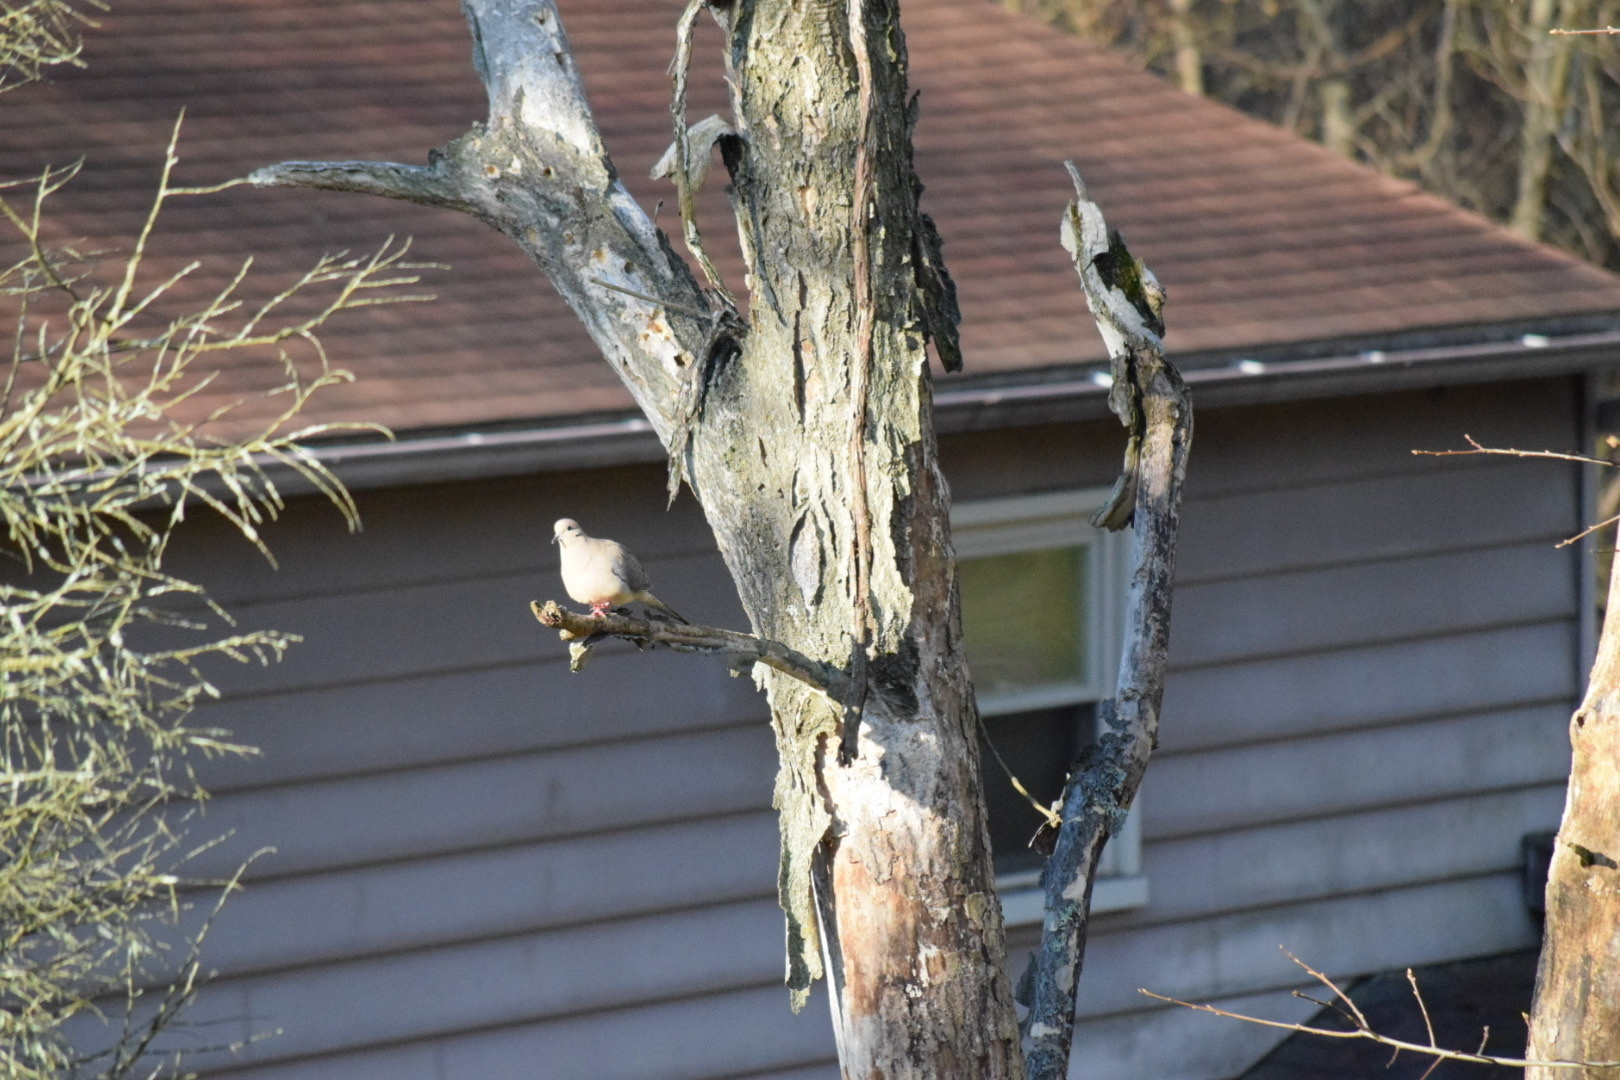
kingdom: Animalia
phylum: Chordata
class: Aves
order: Columbiformes
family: Columbidae
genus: Zenaida
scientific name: Zenaida macroura
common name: Mourning dove
